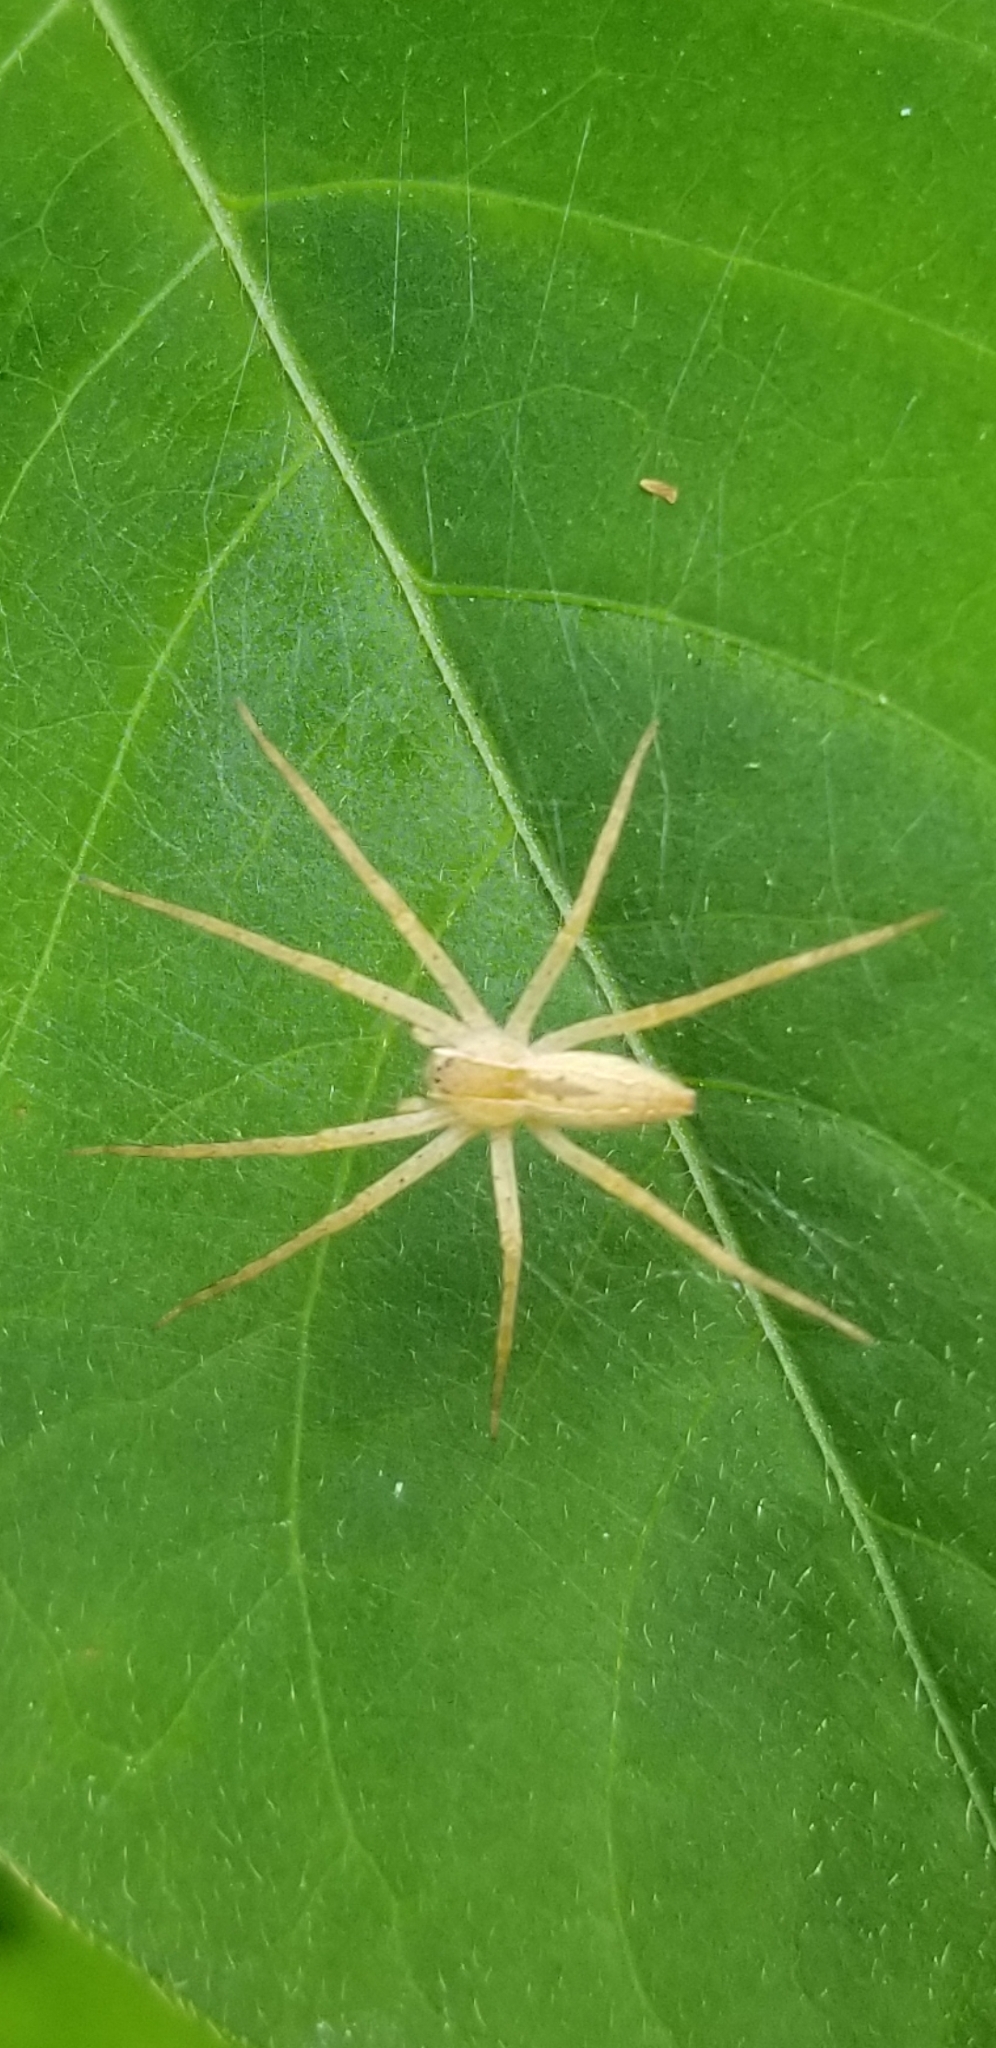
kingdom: Animalia
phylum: Arthropoda
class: Arachnida
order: Araneae
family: Pisauridae
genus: Pisaurina
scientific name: Pisaurina mira
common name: American nursery web spider
